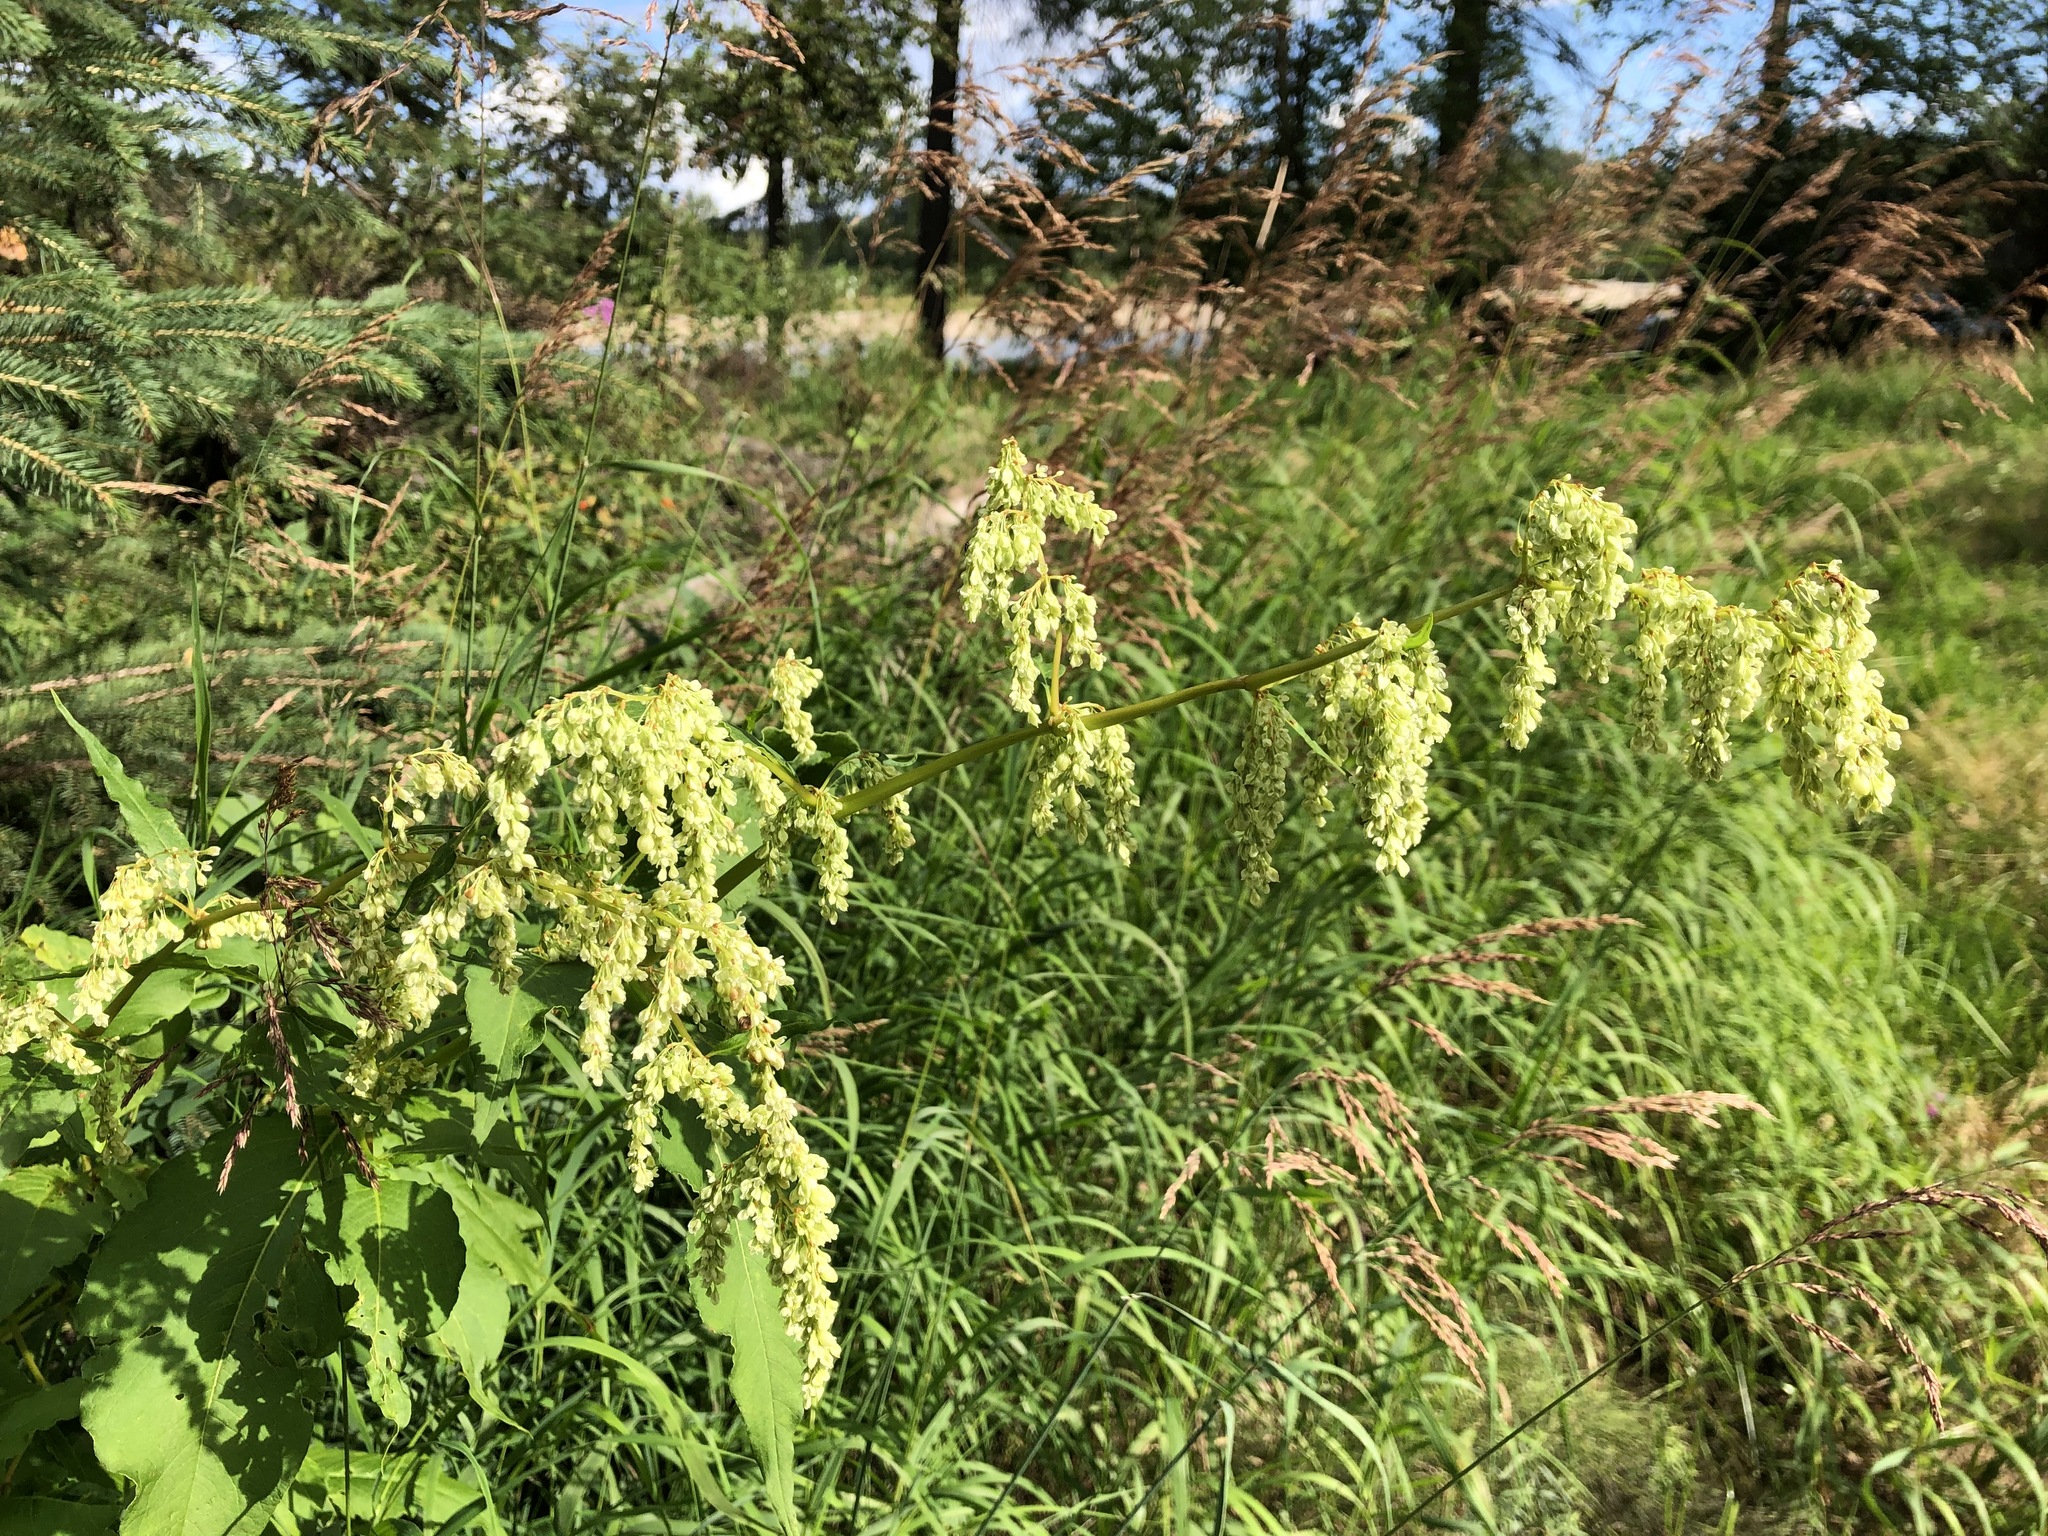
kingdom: Plantae
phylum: Tracheophyta
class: Magnoliopsida
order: Caryophyllales
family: Polygonaceae
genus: Koenigia
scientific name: Koenigia lapathifolia
